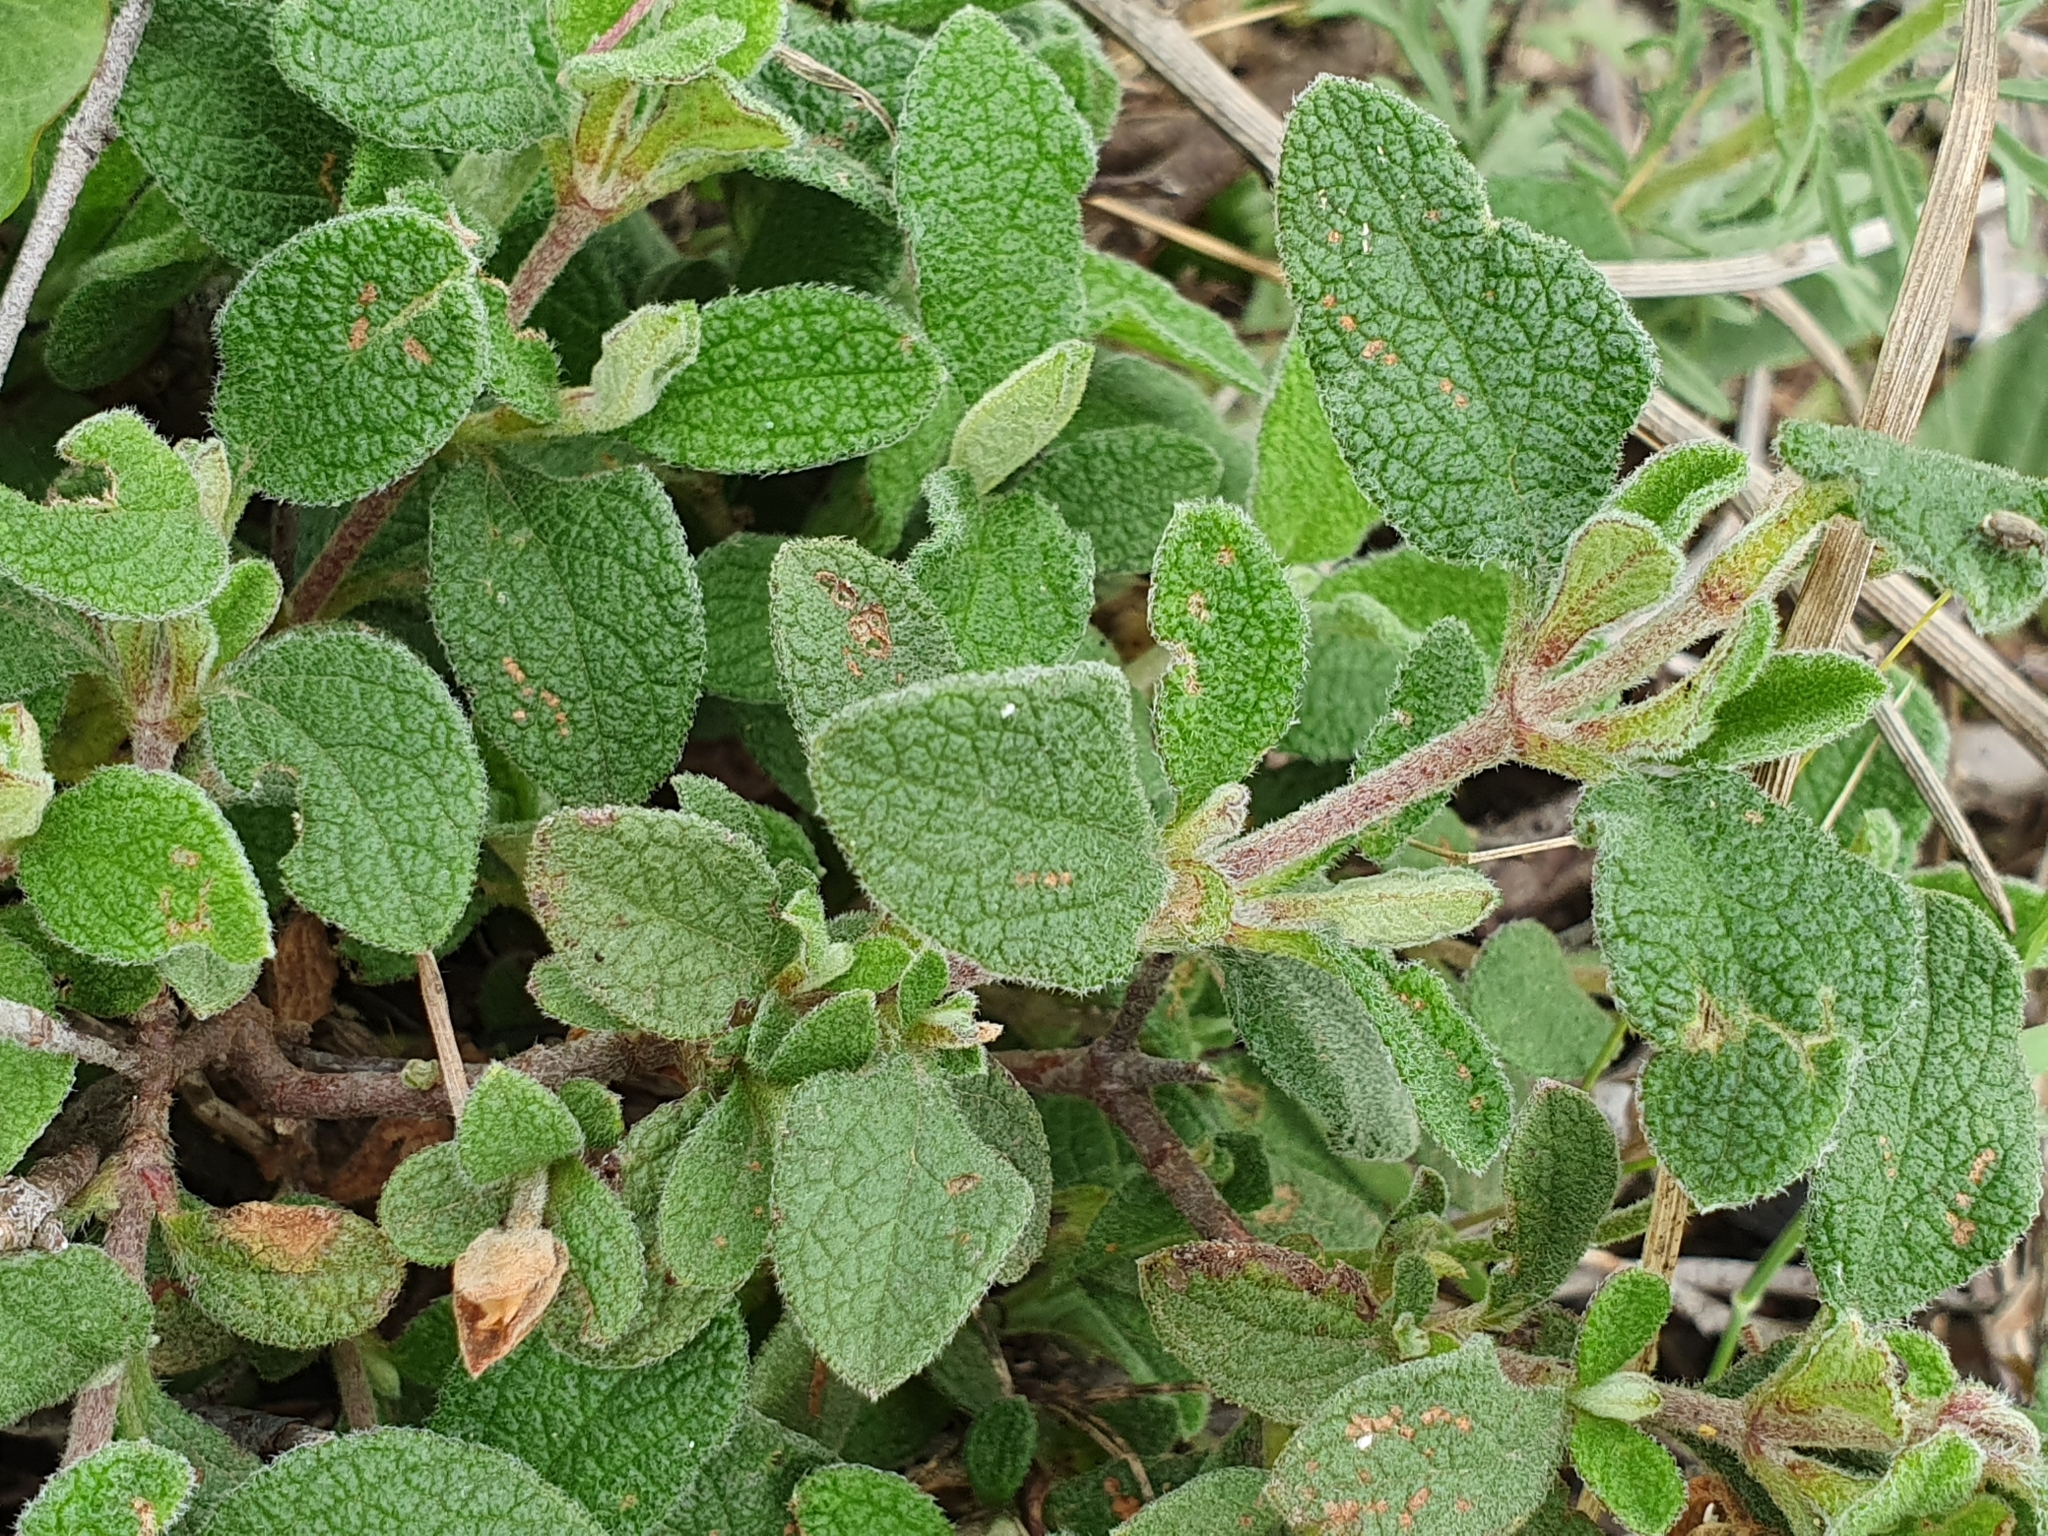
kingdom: Plantae
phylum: Tracheophyta
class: Magnoliopsida
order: Malvales
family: Cistaceae
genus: Cistus
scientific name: Cistus salviifolius
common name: Salvia cistus
